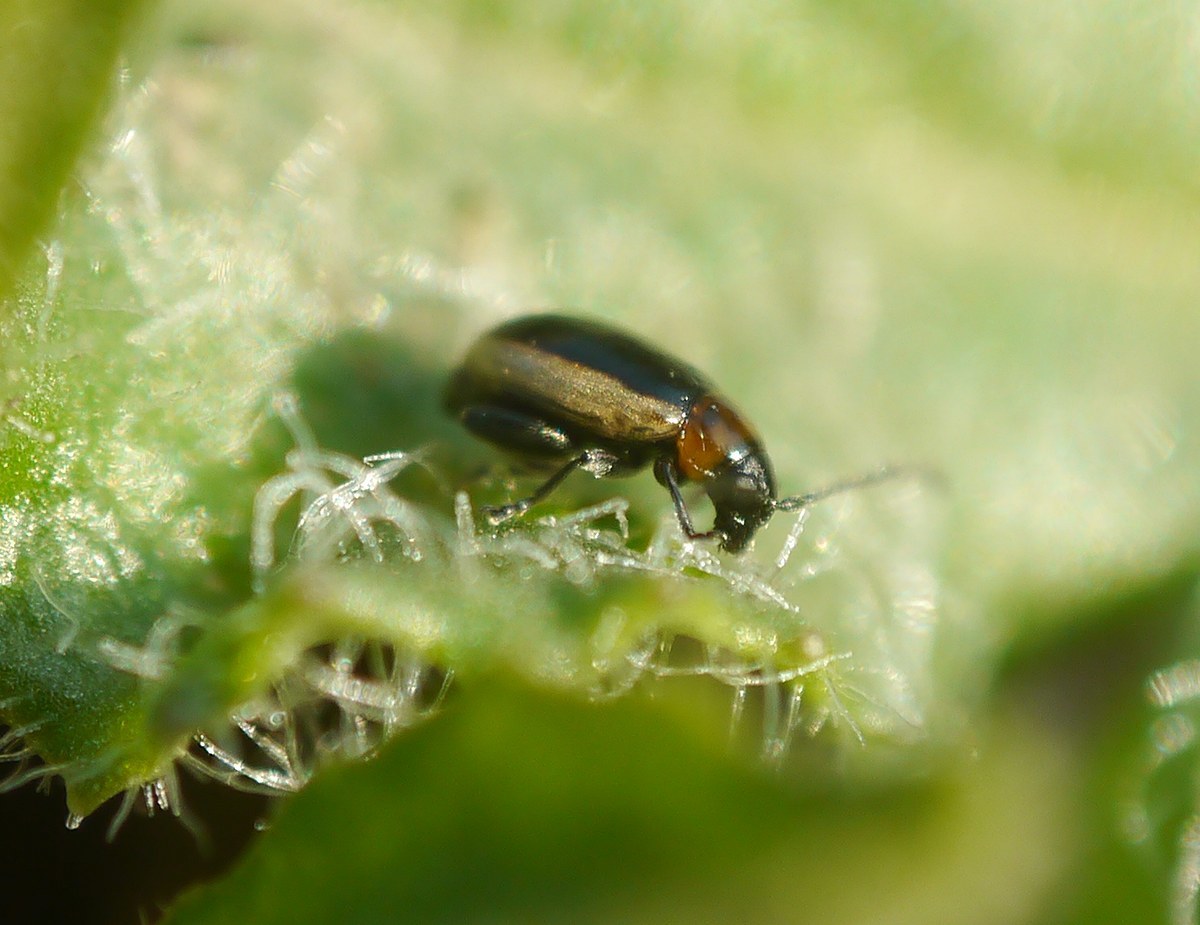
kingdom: Animalia
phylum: Arthropoda
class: Insecta
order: Coleoptera
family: Chrysomelidae
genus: Longitarsus
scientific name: Longitarsus dorsalis
